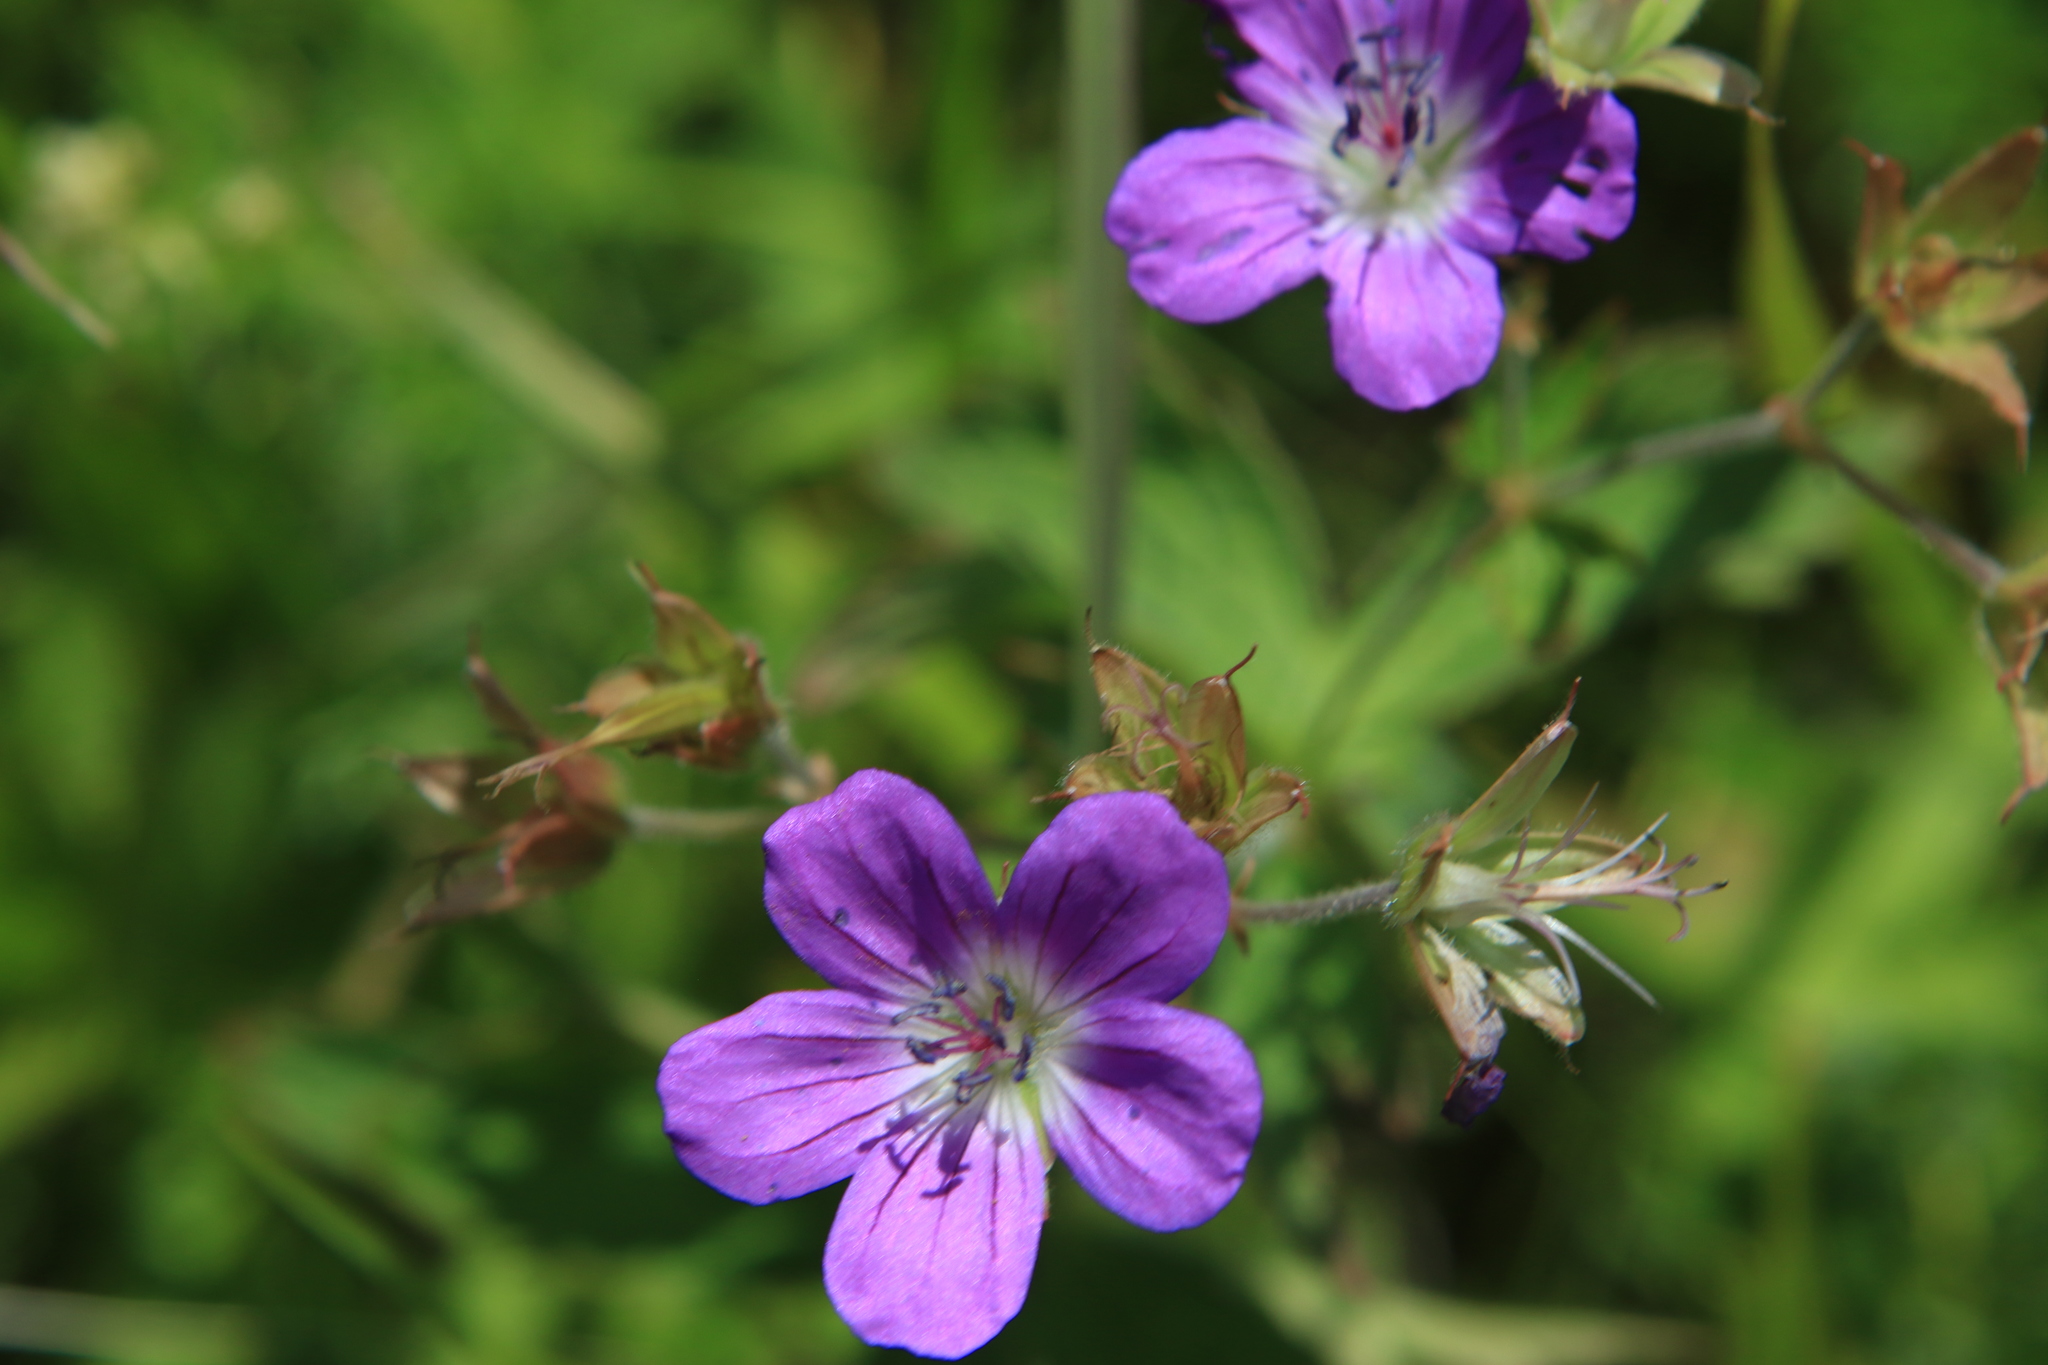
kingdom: Plantae
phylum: Tracheophyta
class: Magnoliopsida
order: Geraniales
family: Geraniaceae
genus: Geranium
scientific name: Geranium sylvaticum
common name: Wood crane's-bill
